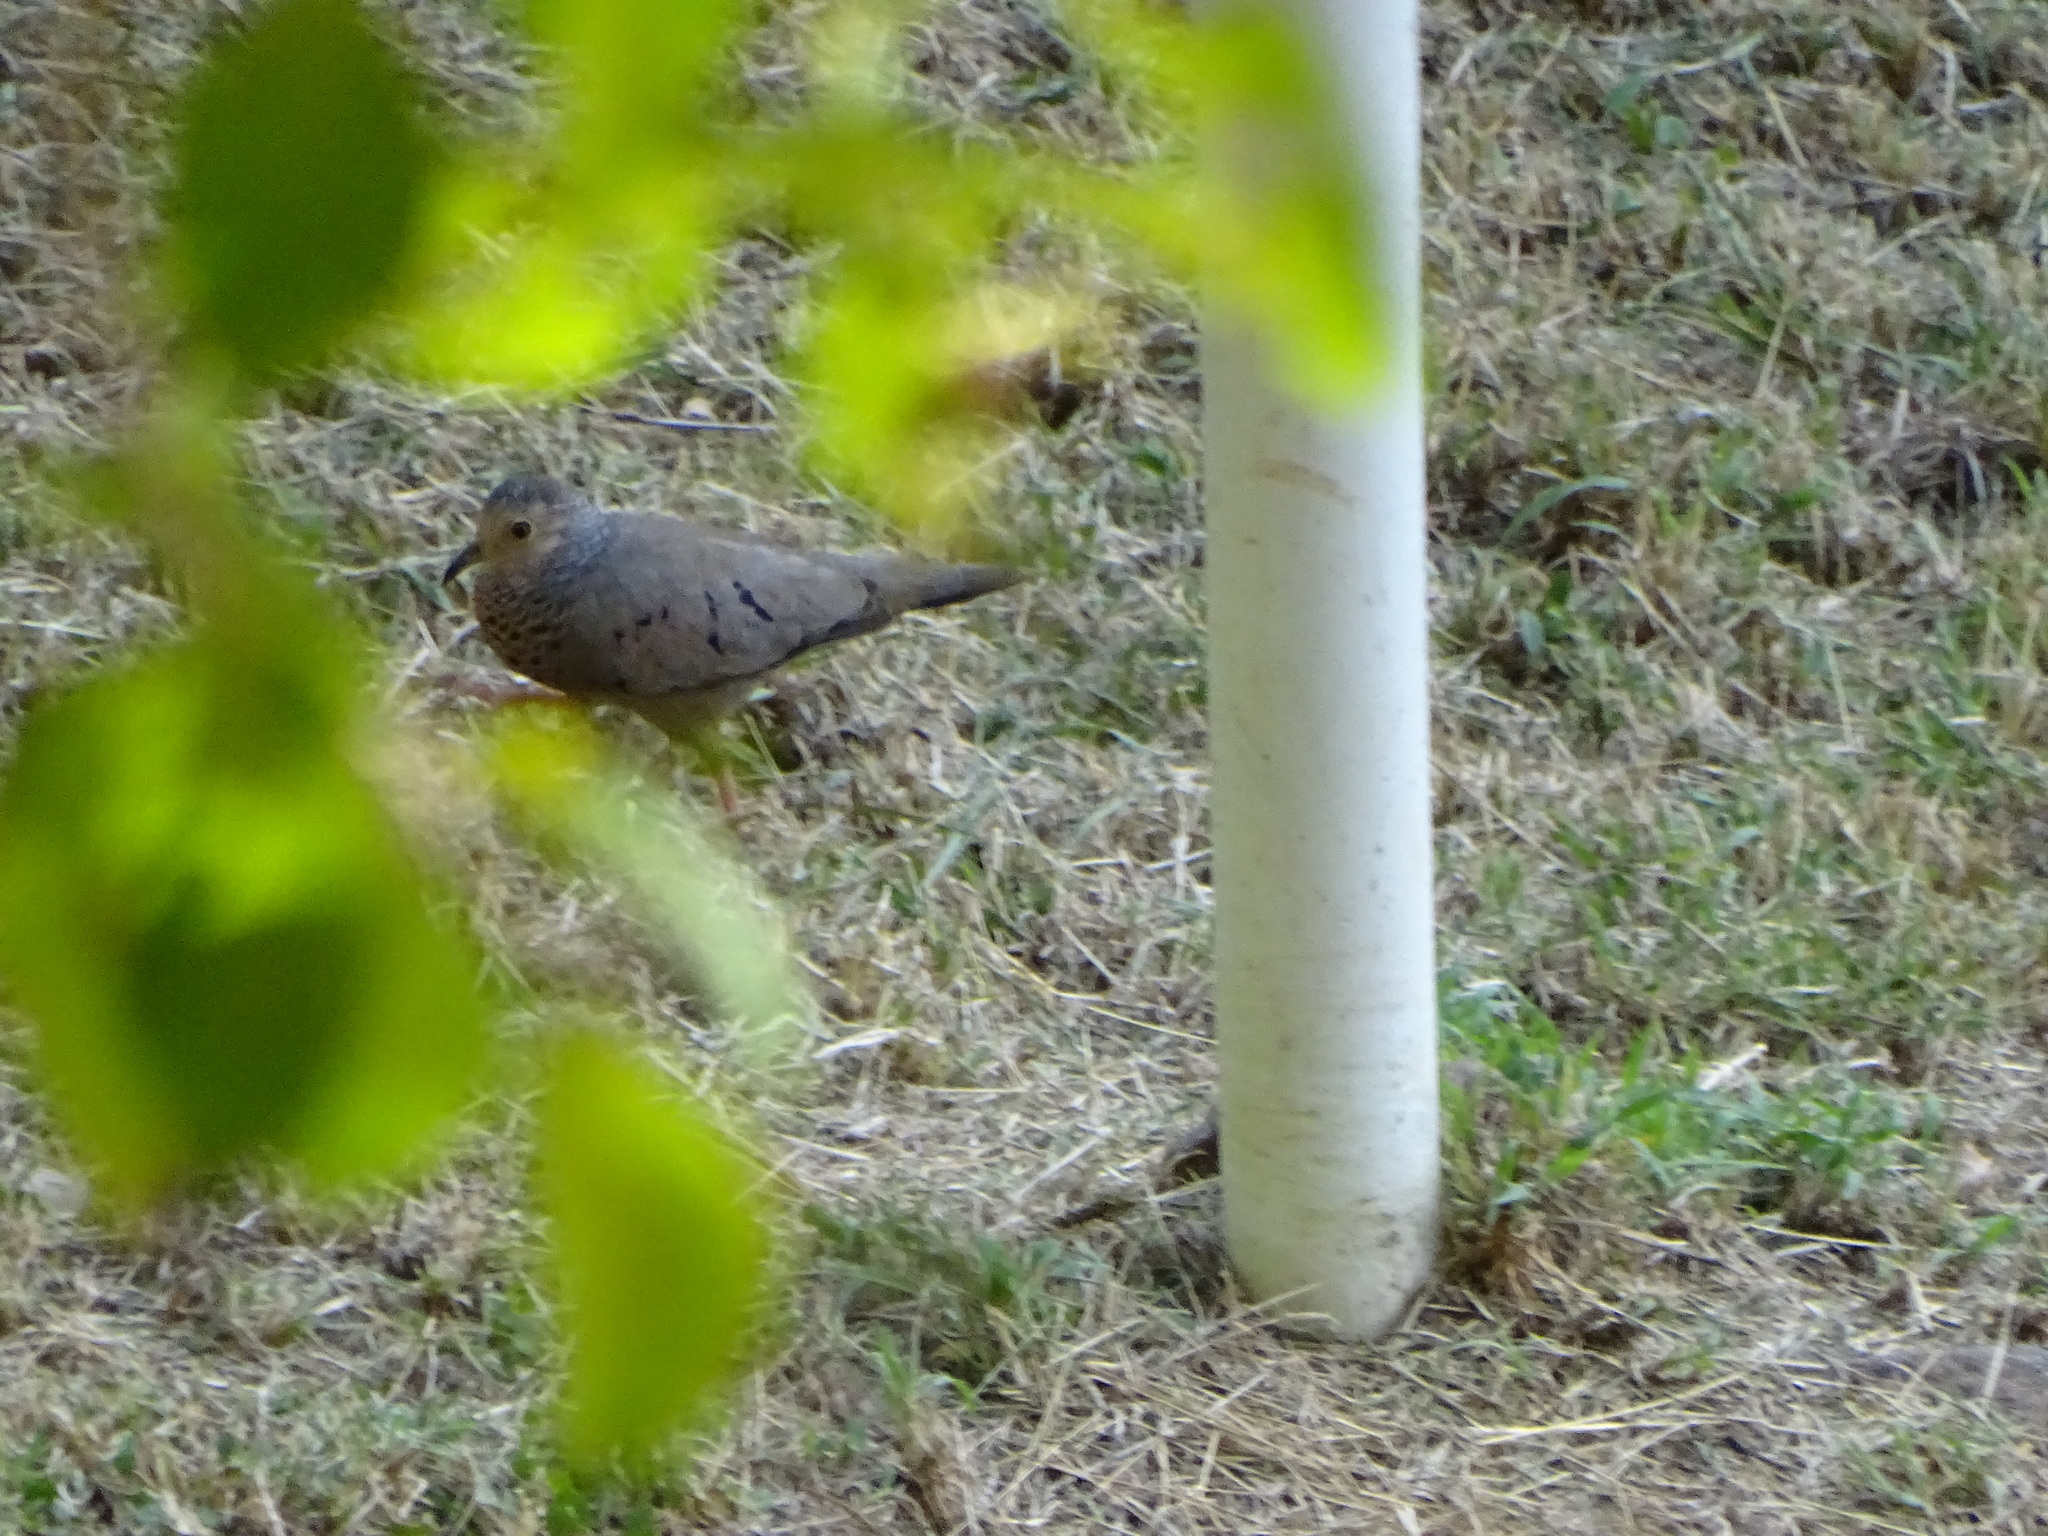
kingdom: Animalia
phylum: Chordata
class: Aves
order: Columbiformes
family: Columbidae
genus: Columbina
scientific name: Columbina passerina
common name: Common ground-dove
